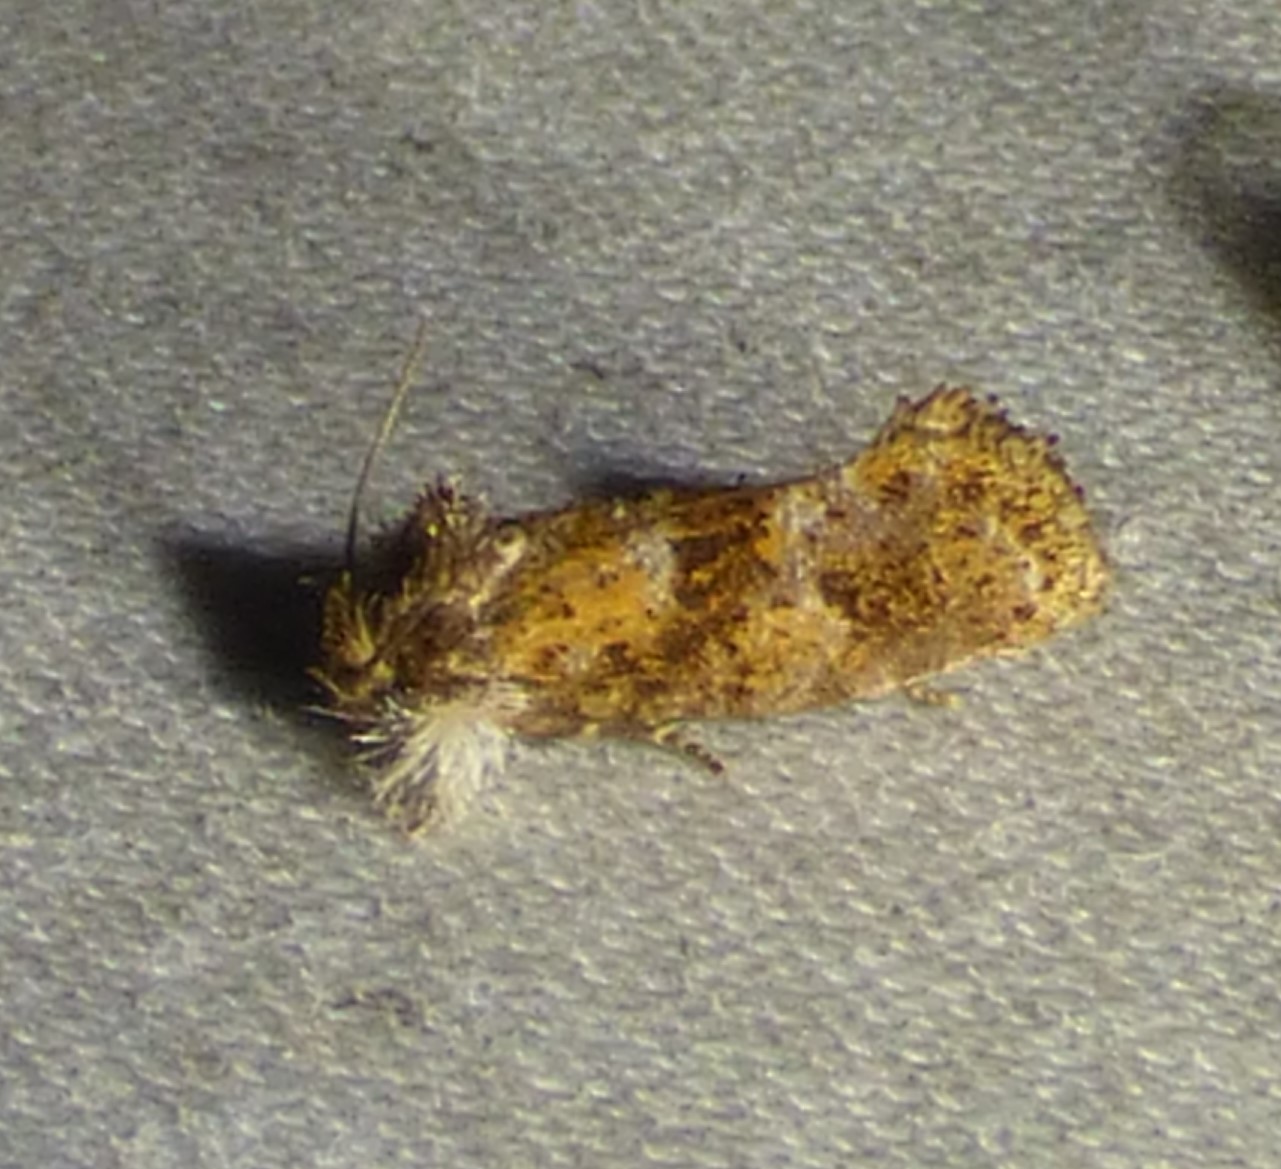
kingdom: Animalia
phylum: Arthropoda
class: Insecta
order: Lepidoptera
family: Tineidae
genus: Acrolophus
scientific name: Acrolophus panamae
